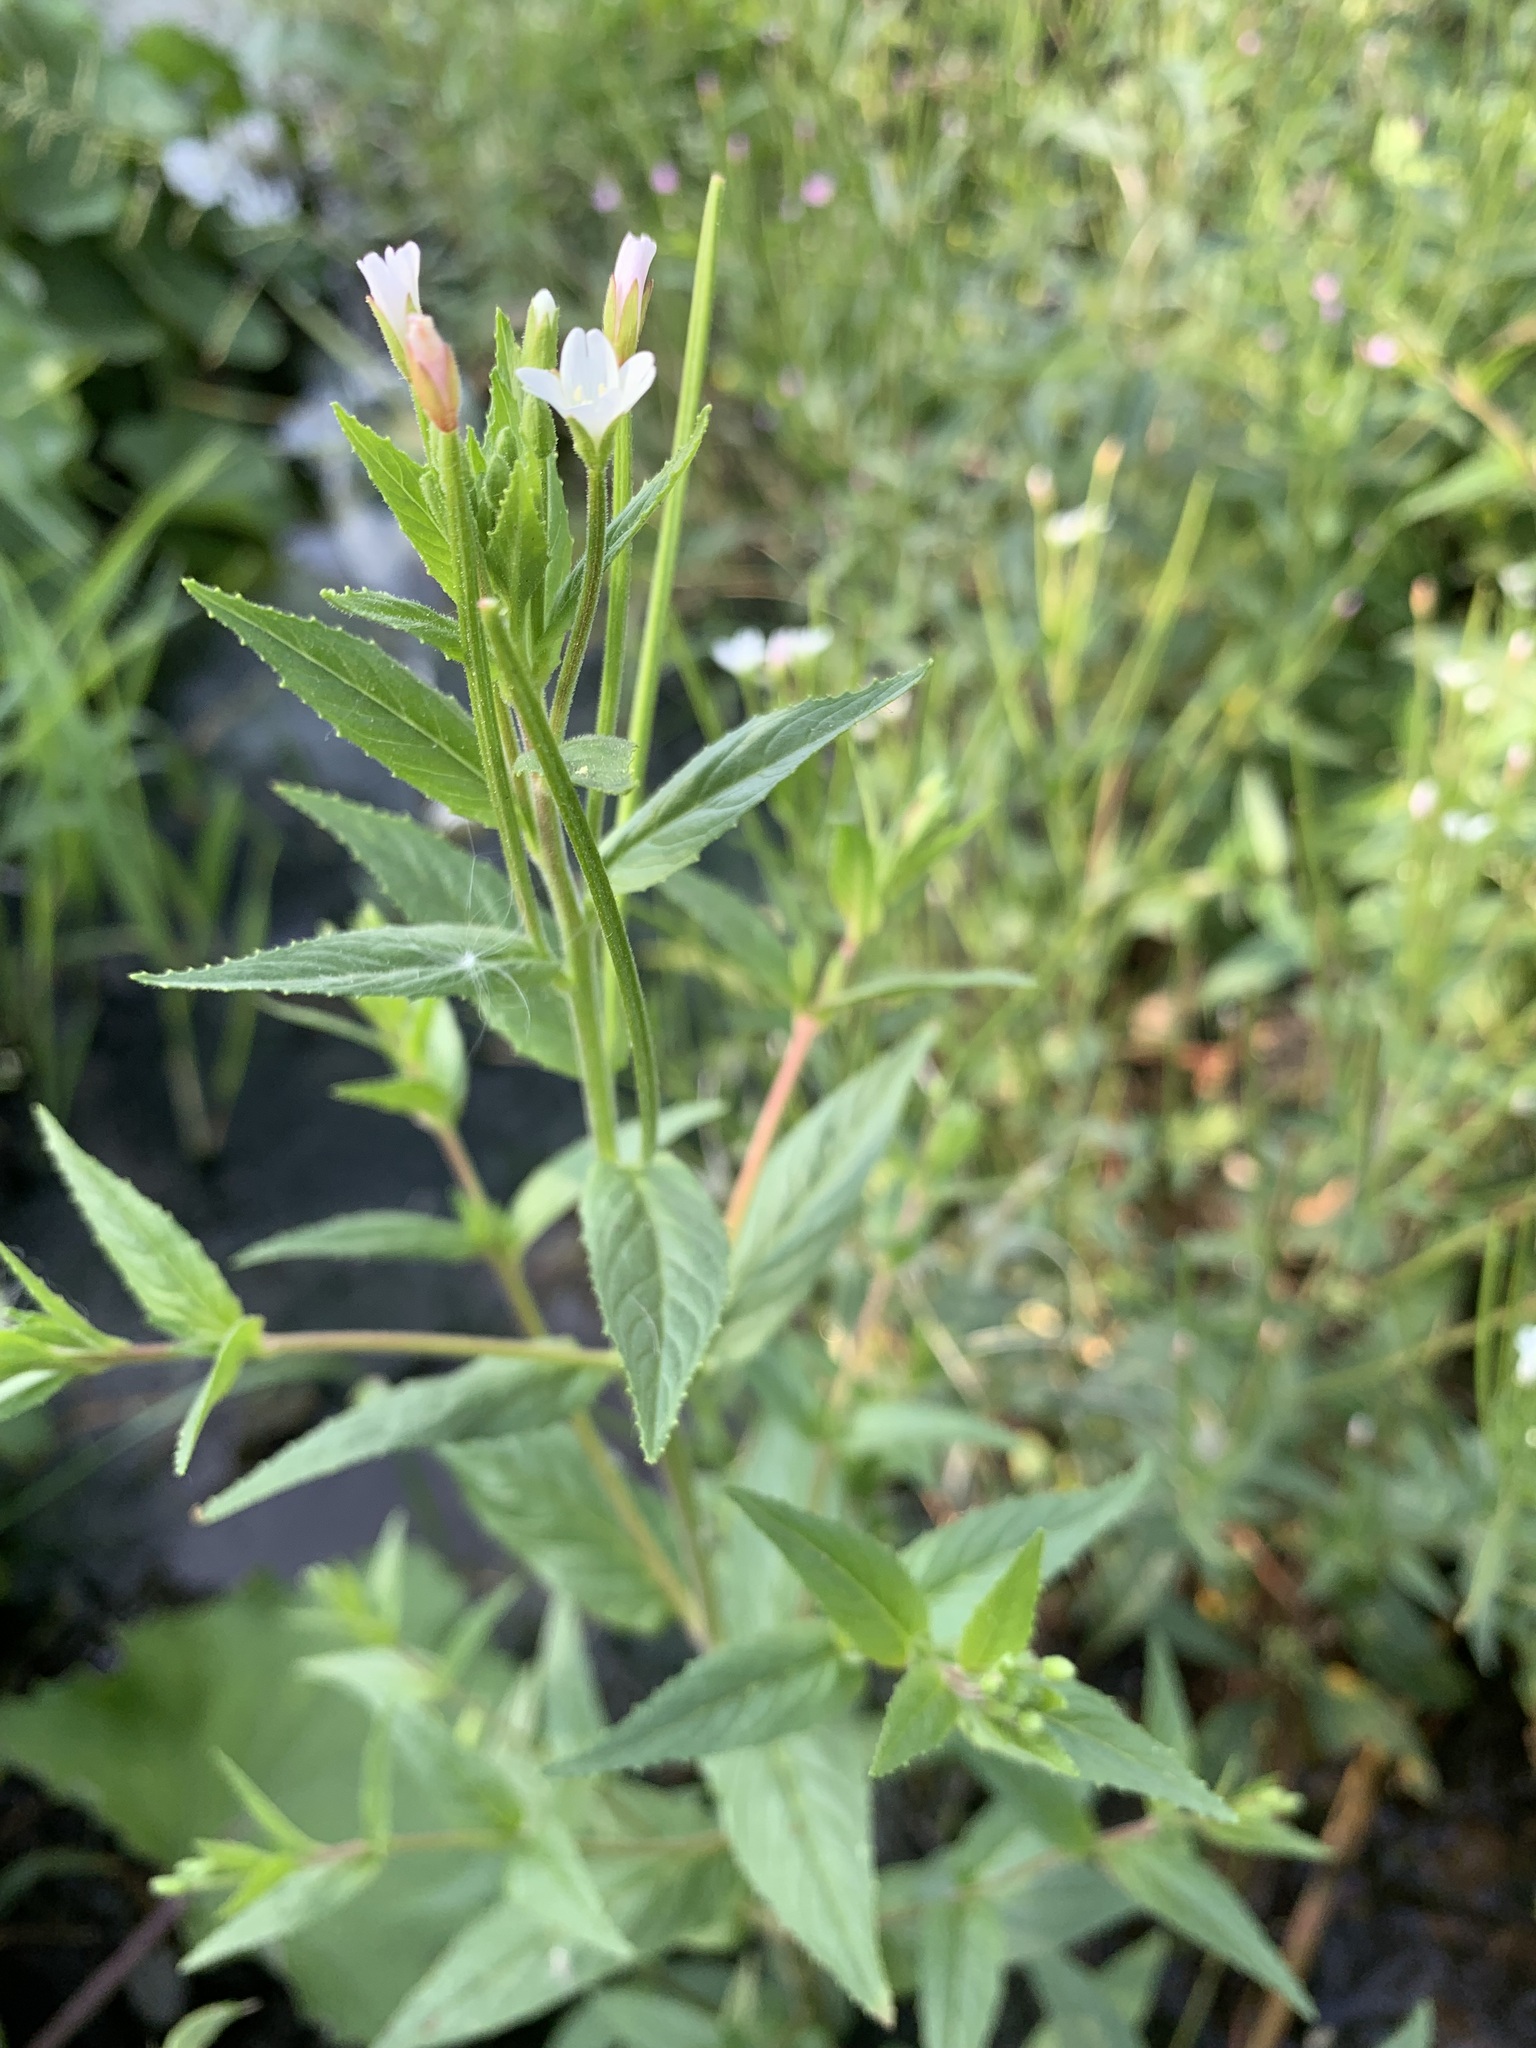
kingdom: Plantae
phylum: Tracheophyta
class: Magnoliopsida
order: Myrtales
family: Onagraceae
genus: Epilobium
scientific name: Epilobium pseudorubescens
